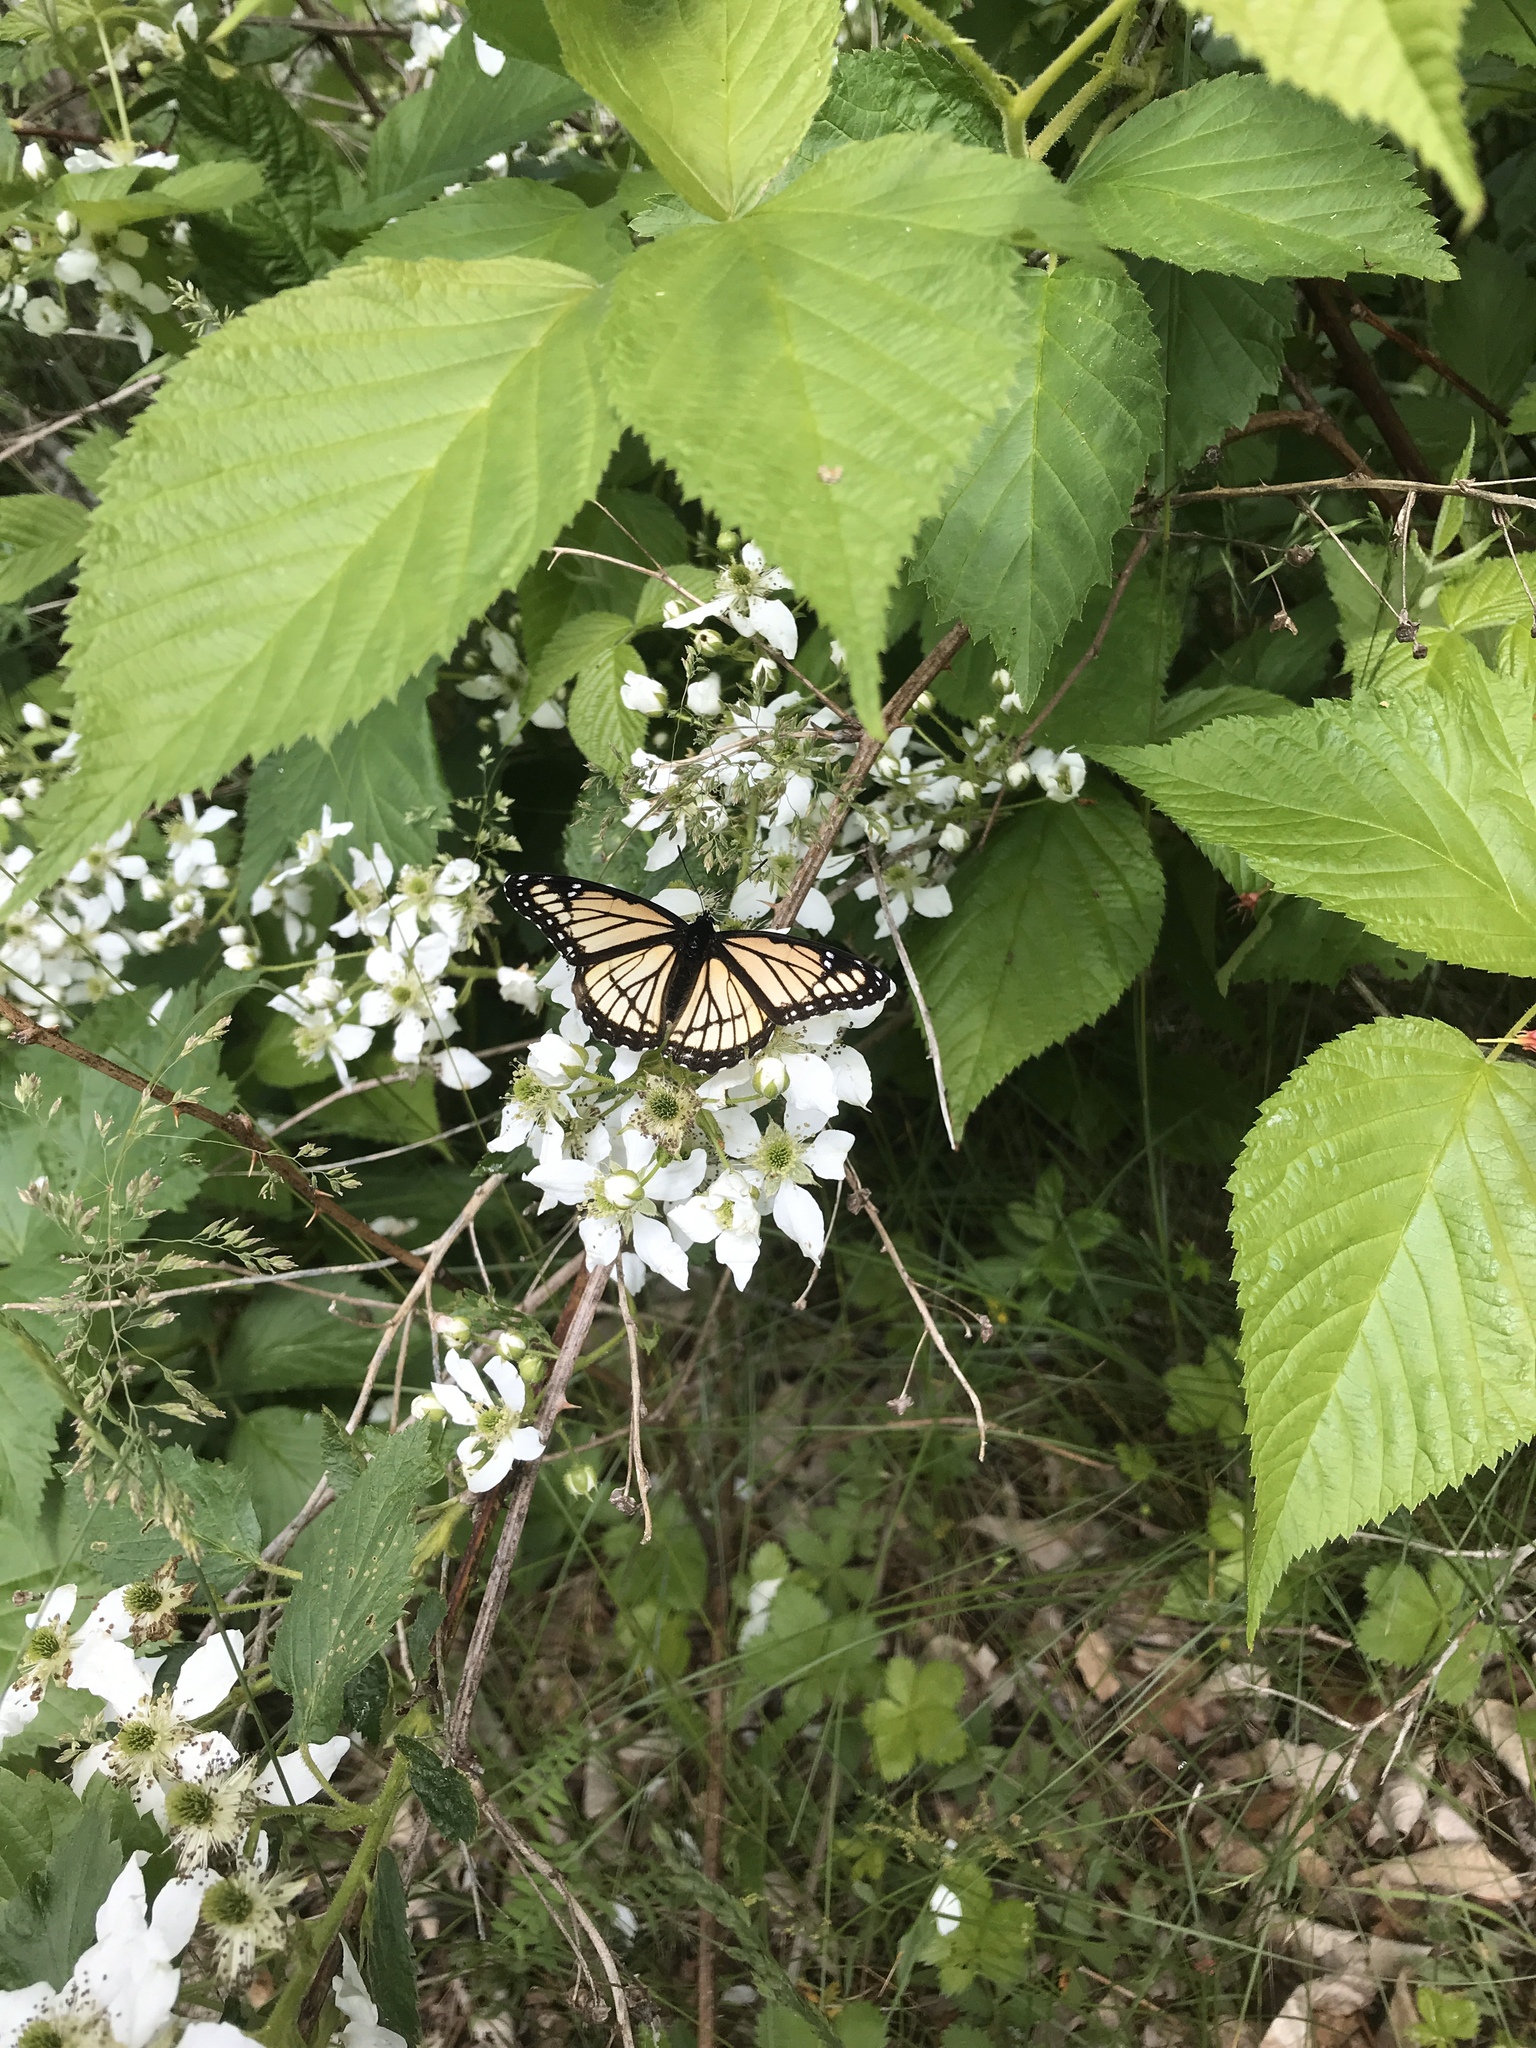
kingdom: Animalia
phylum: Arthropoda
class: Insecta
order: Lepidoptera
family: Nymphalidae
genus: Limenitis
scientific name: Limenitis archippus
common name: Viceroy
